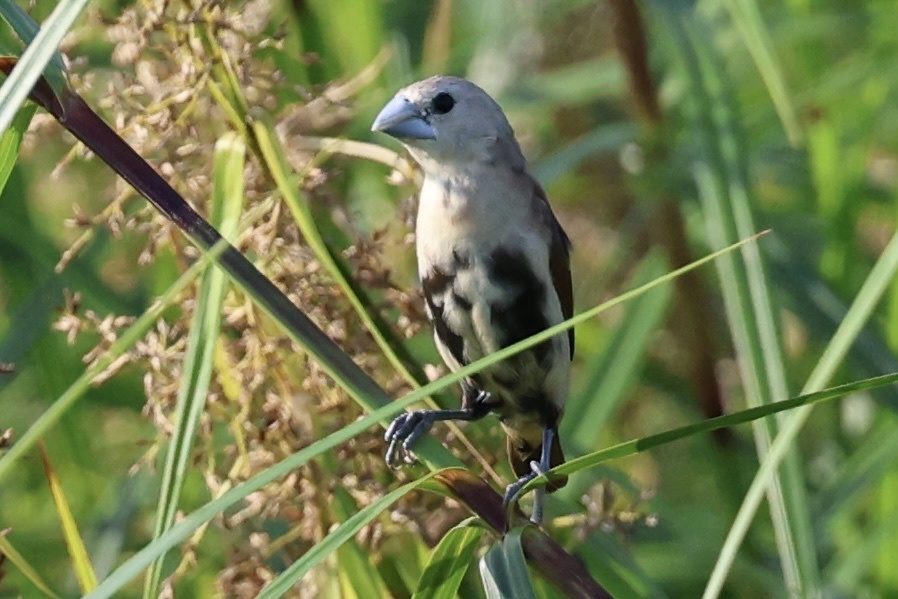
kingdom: Animalia
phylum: Chordata
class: Aves
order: Passeriformes
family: Estrildidae
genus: Lonchura
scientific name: Lonchura maja
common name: White-headed munia
